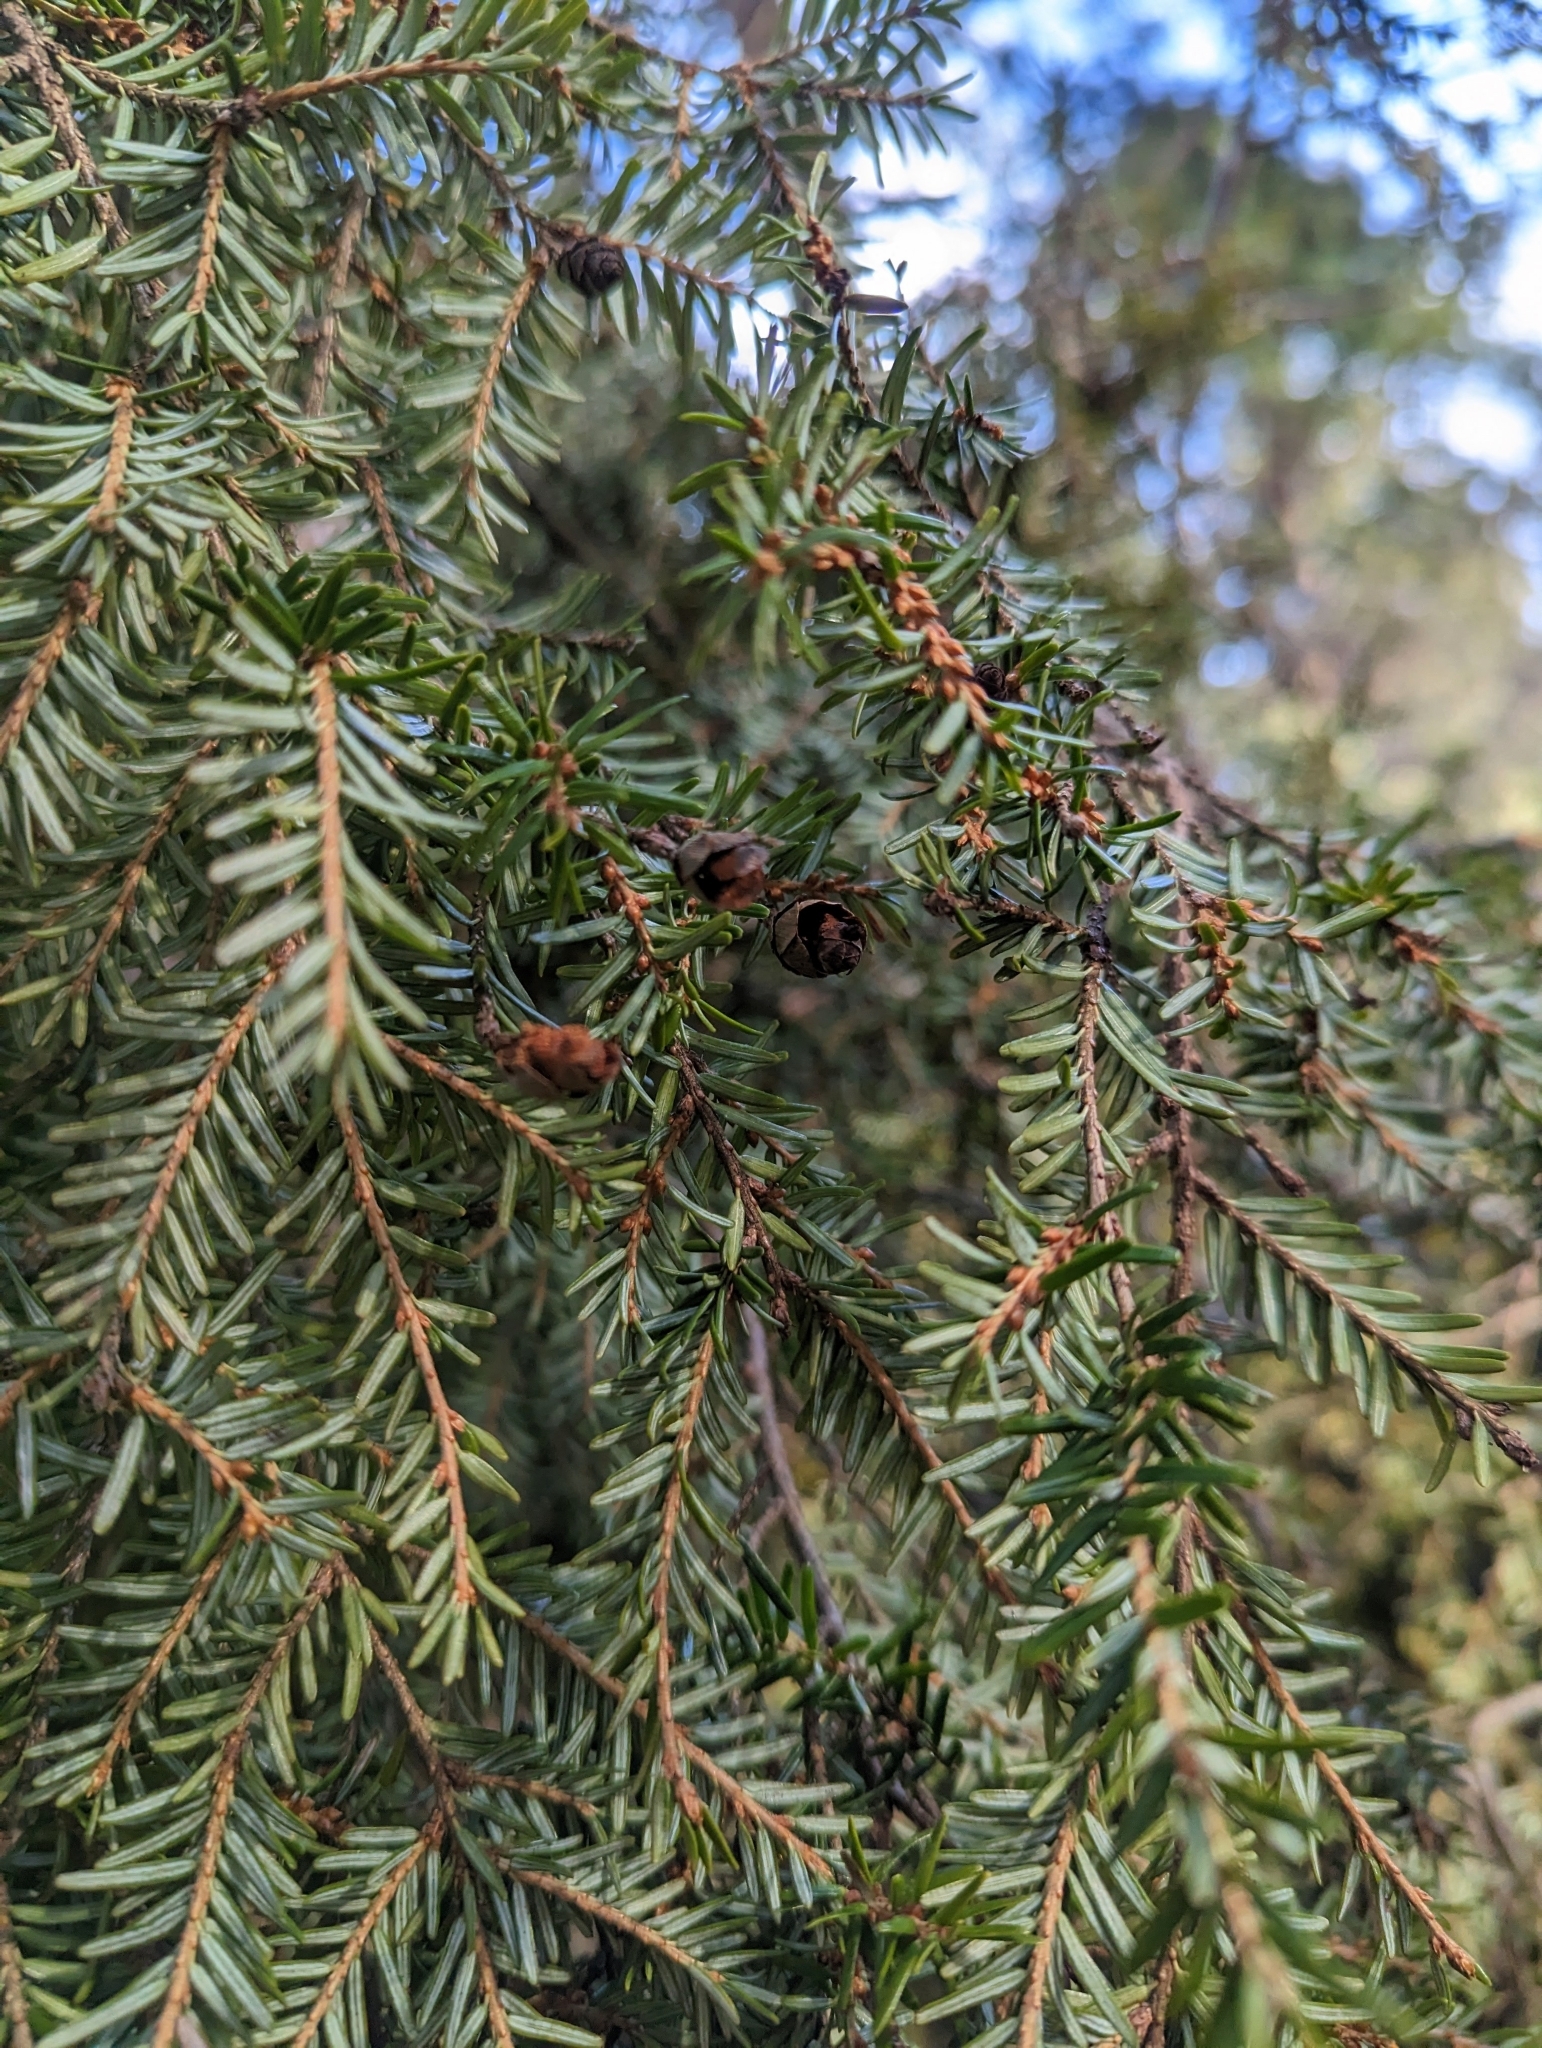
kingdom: Plantae
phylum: Tracheophyta
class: Pinopsida
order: Pinales
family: Pinaceae
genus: Tsuga
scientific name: Tsuga canadensis
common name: Eastern hemlock
